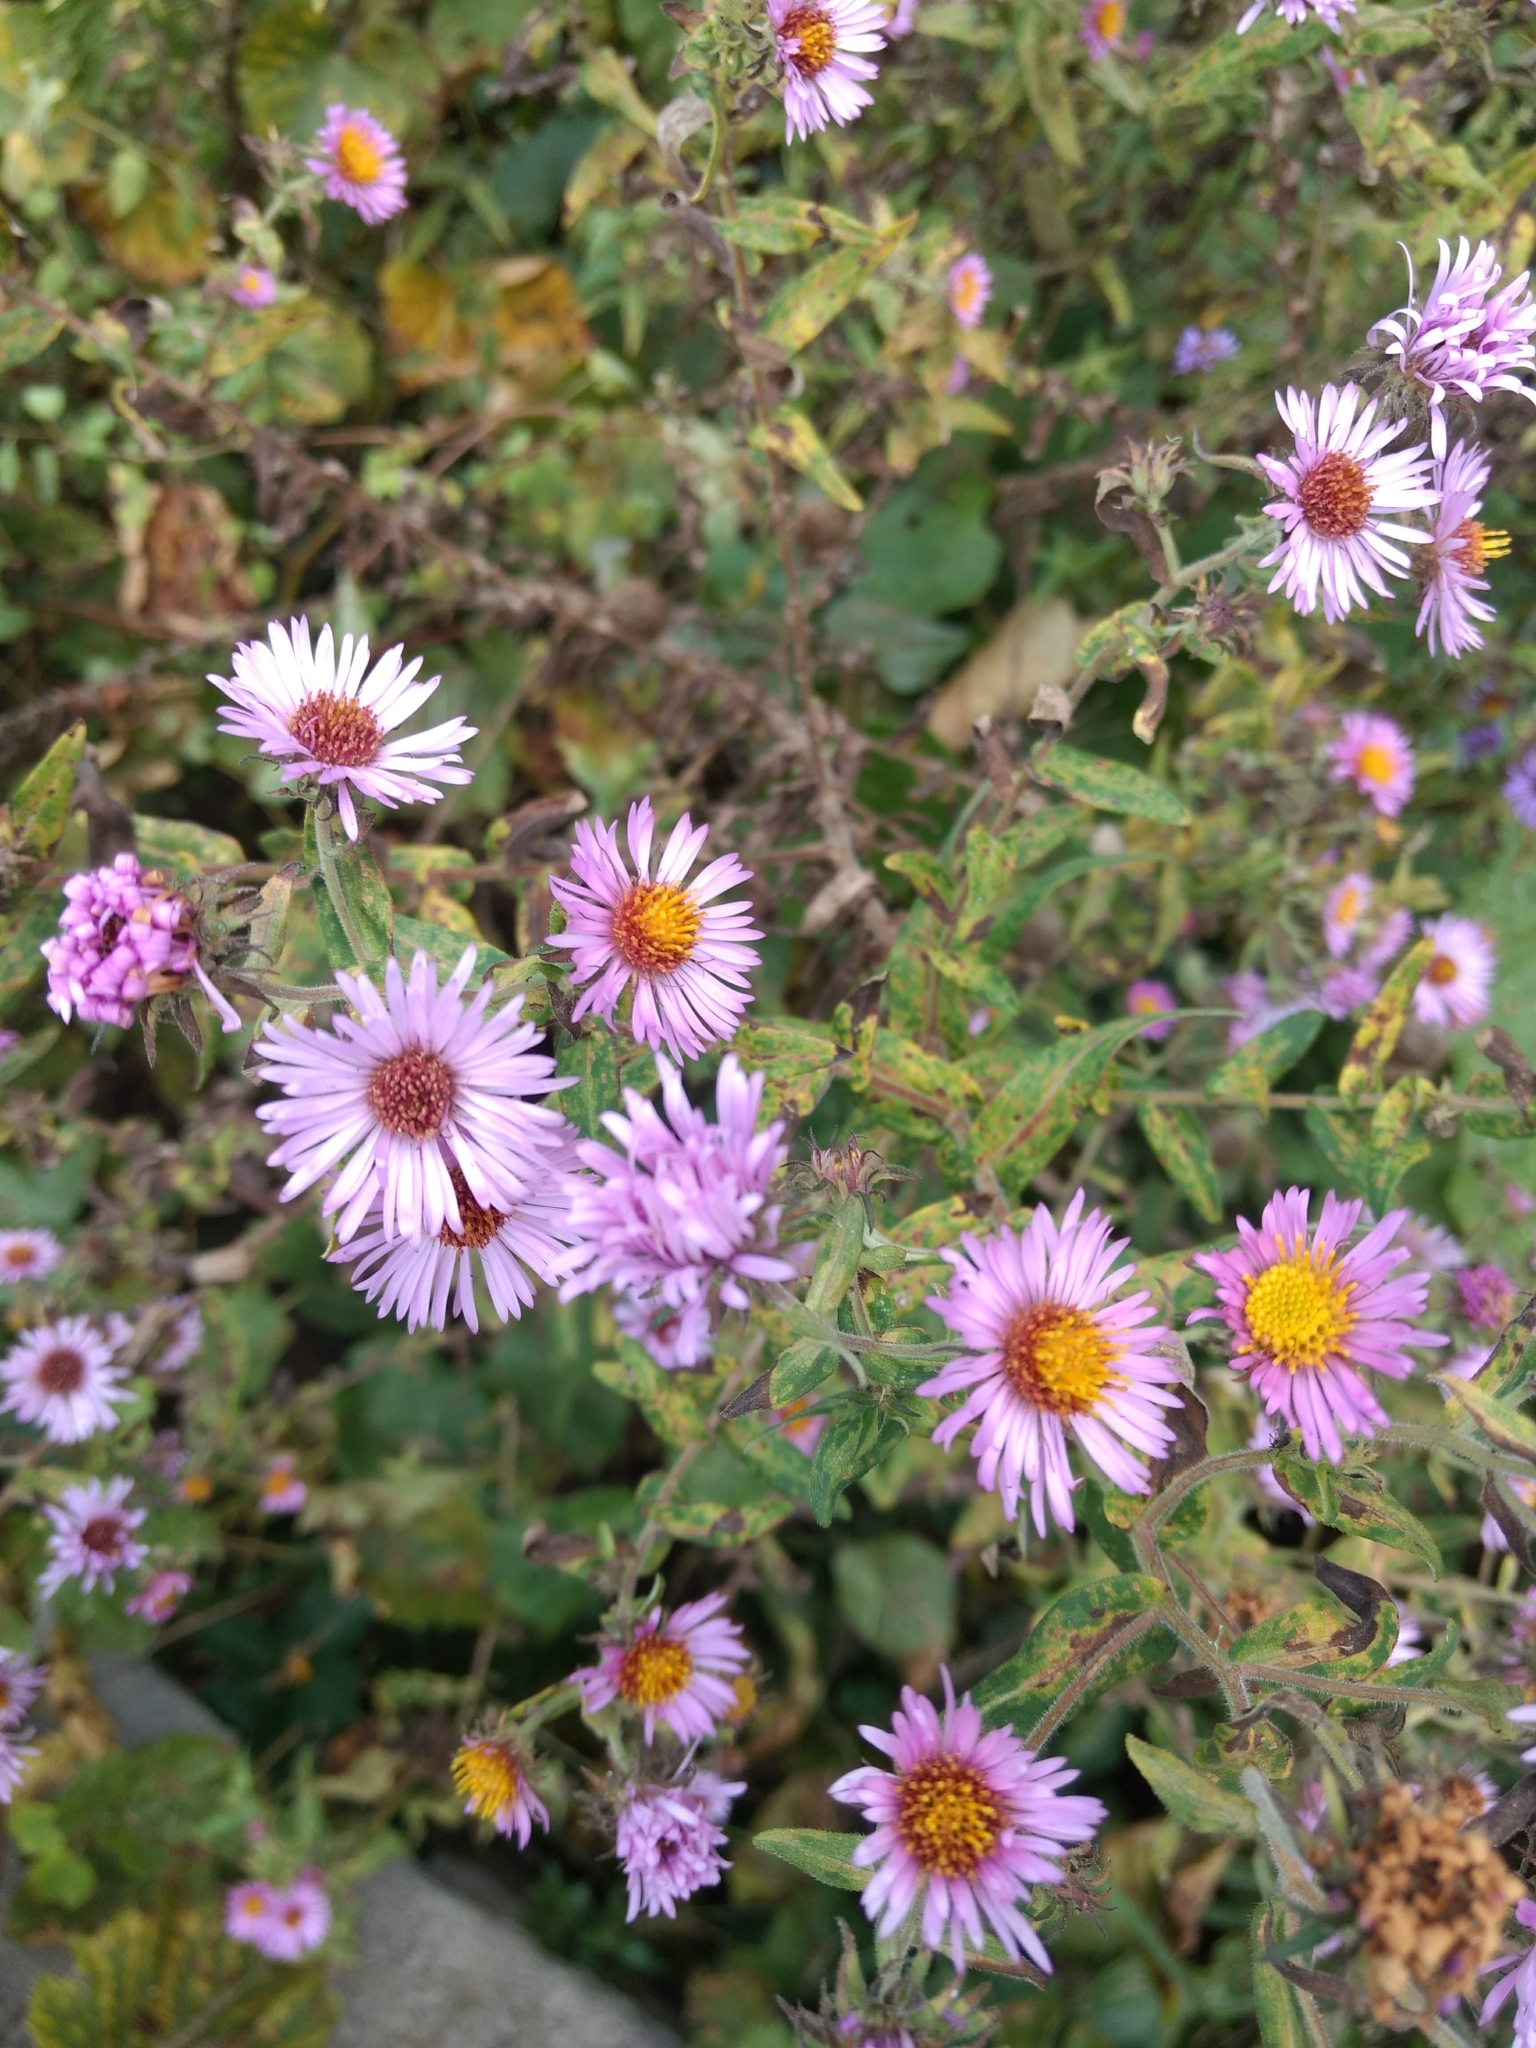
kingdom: Plantae
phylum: Tracheophyta
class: Magnoliopsida
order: Asterales
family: Asteraceae
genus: Symphyotrichum
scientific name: Symphyotrichum novae-angliae
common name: Michaelmas daisy
